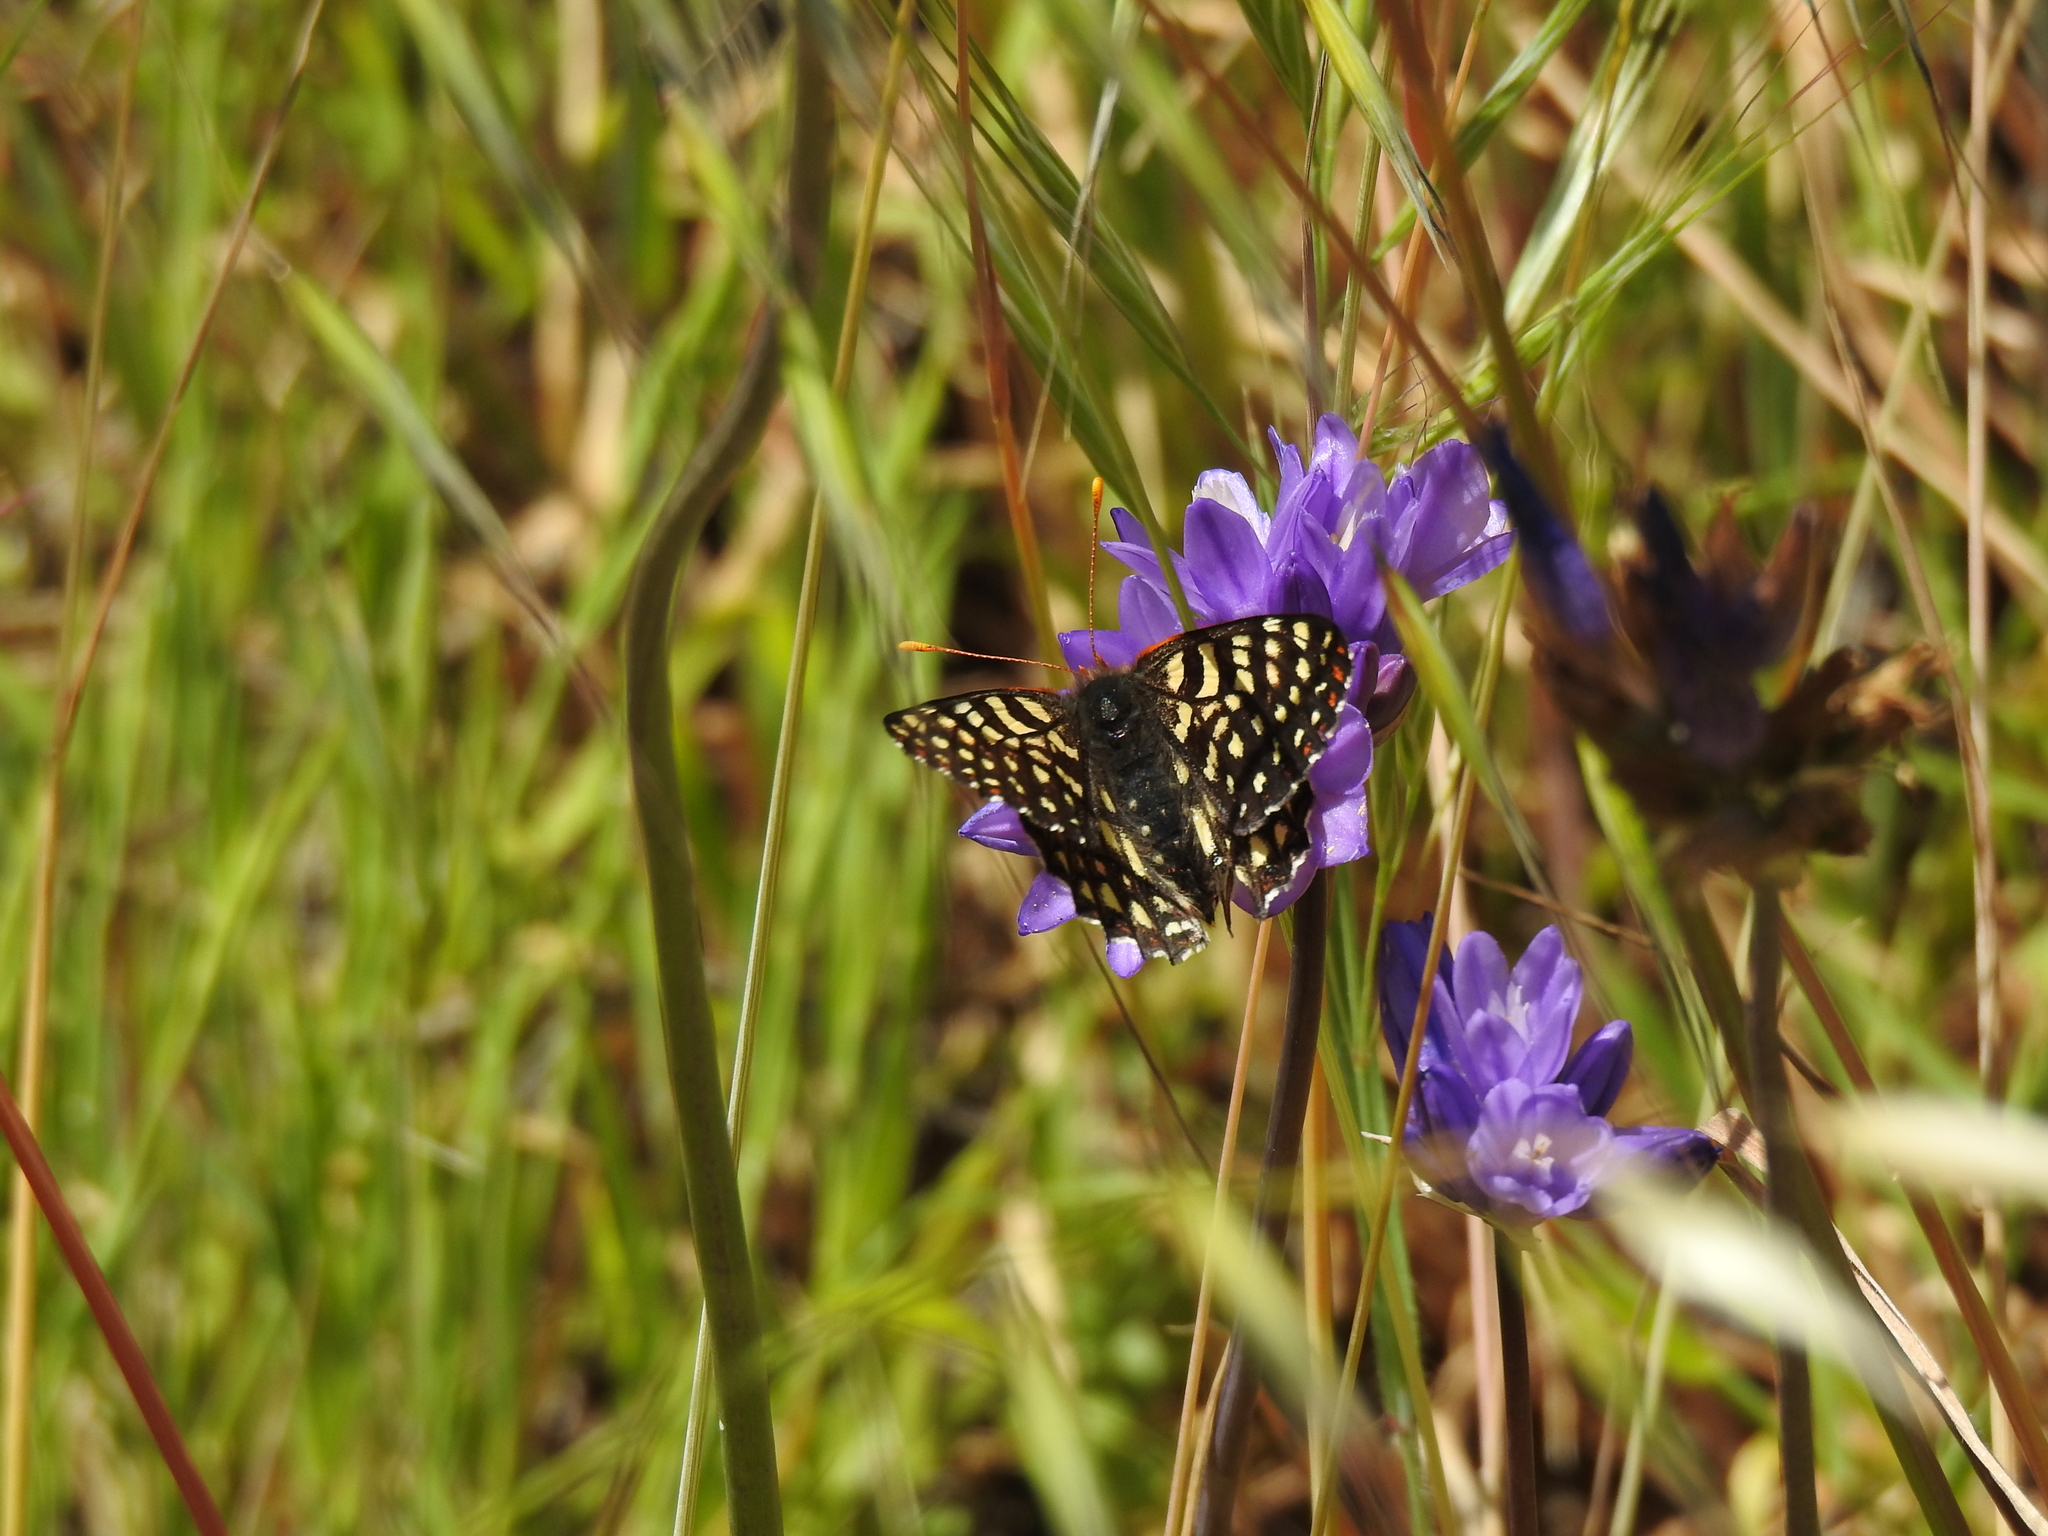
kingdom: Animalia
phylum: Arthropoda
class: Insecta
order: Lepidoptera
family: Nymphalidae
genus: Occidryas
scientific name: Occidryas chalcedona
